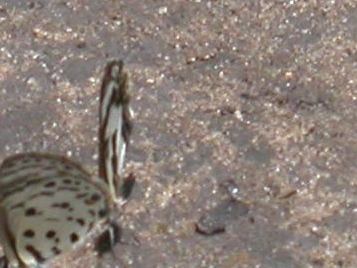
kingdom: Animalia
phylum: Arthropoda
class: Insecta
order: Lepidoptera
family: Lycaenidae
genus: Azanus
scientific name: Azanus isis
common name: White-banded babul blue
